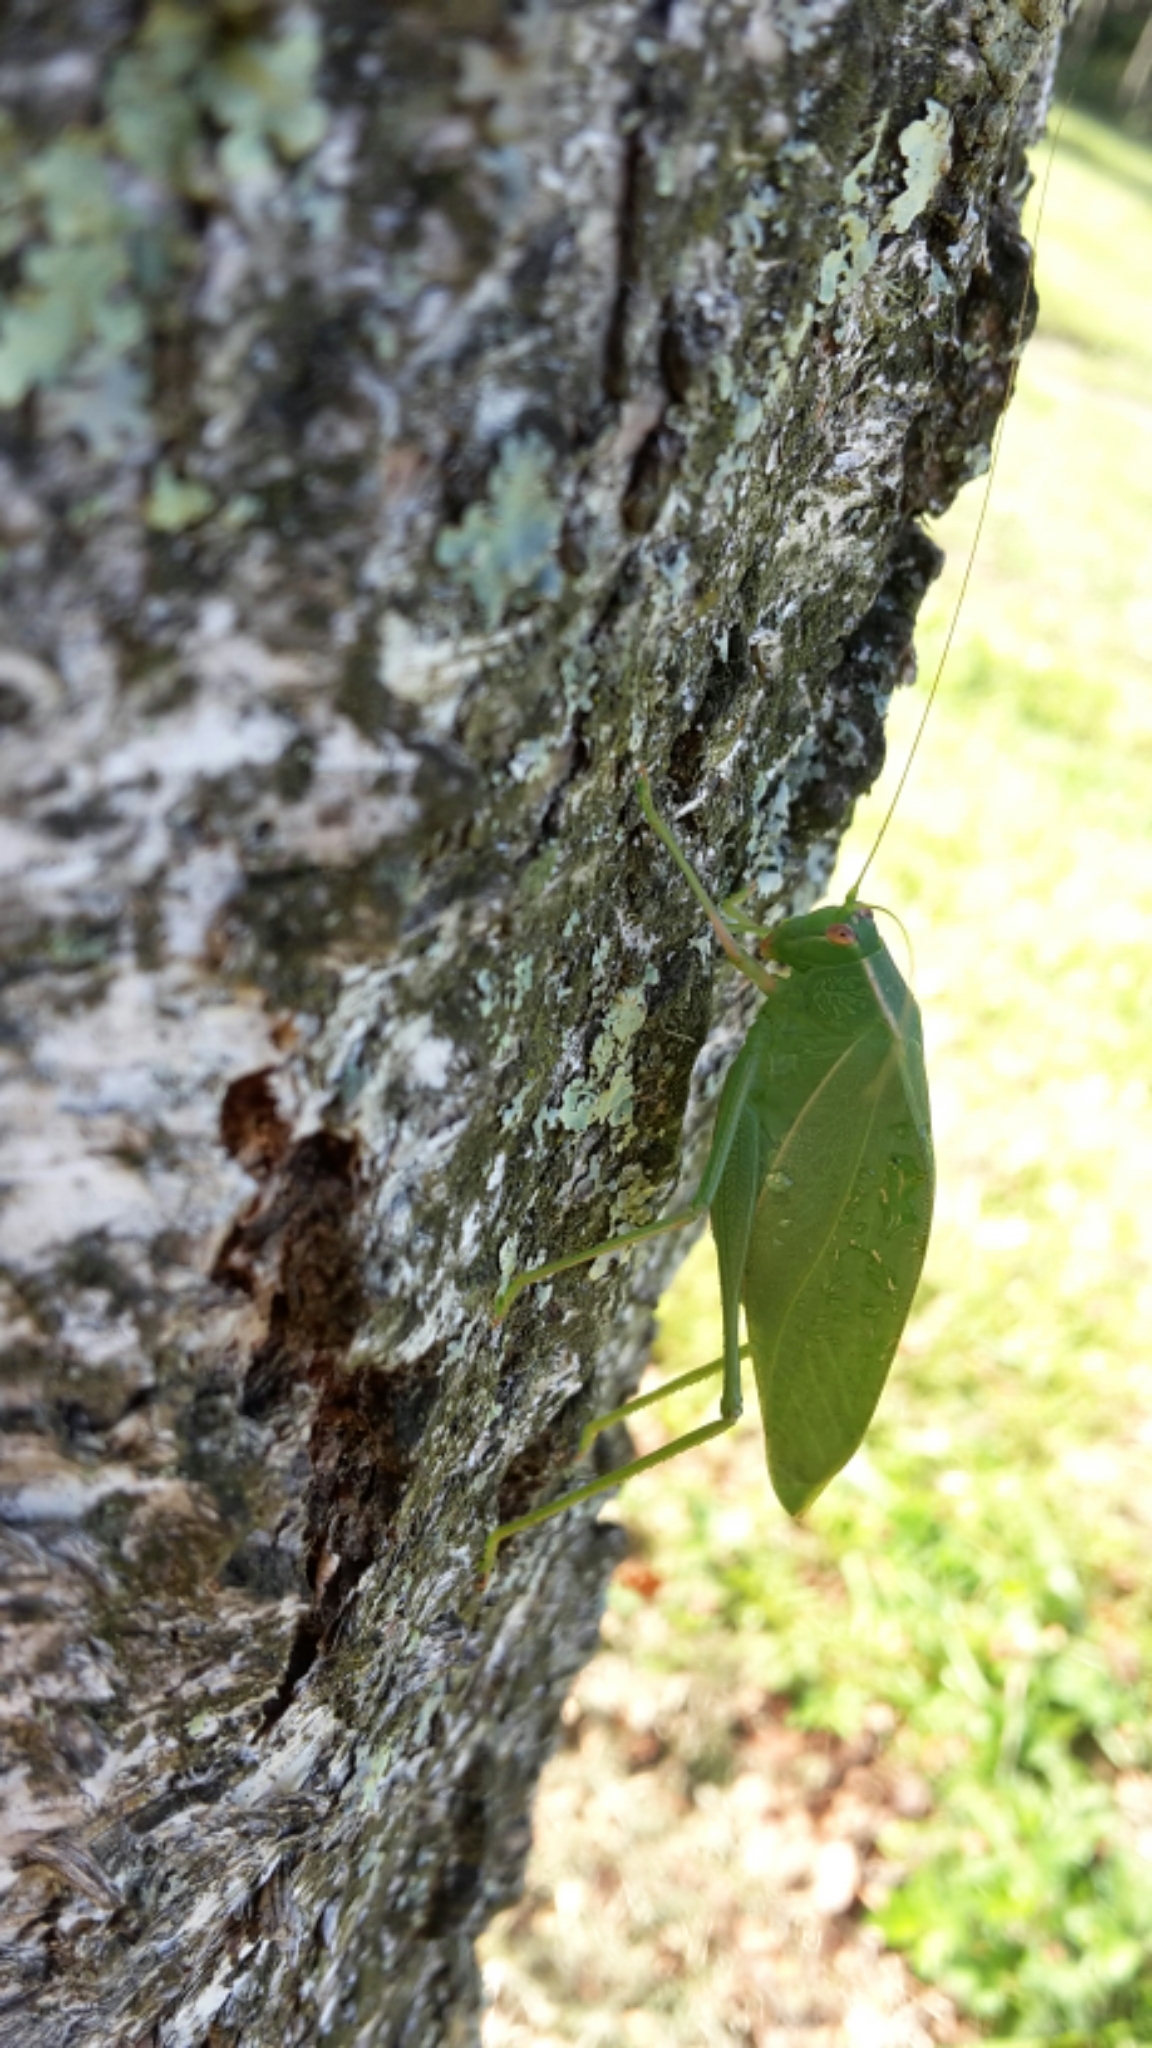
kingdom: Animalia
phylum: Arthropoda
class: Insecta
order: Orthoptera
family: Tettigoniidae
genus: Caedicia
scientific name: Caedicia simplex
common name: Common garden katydid
